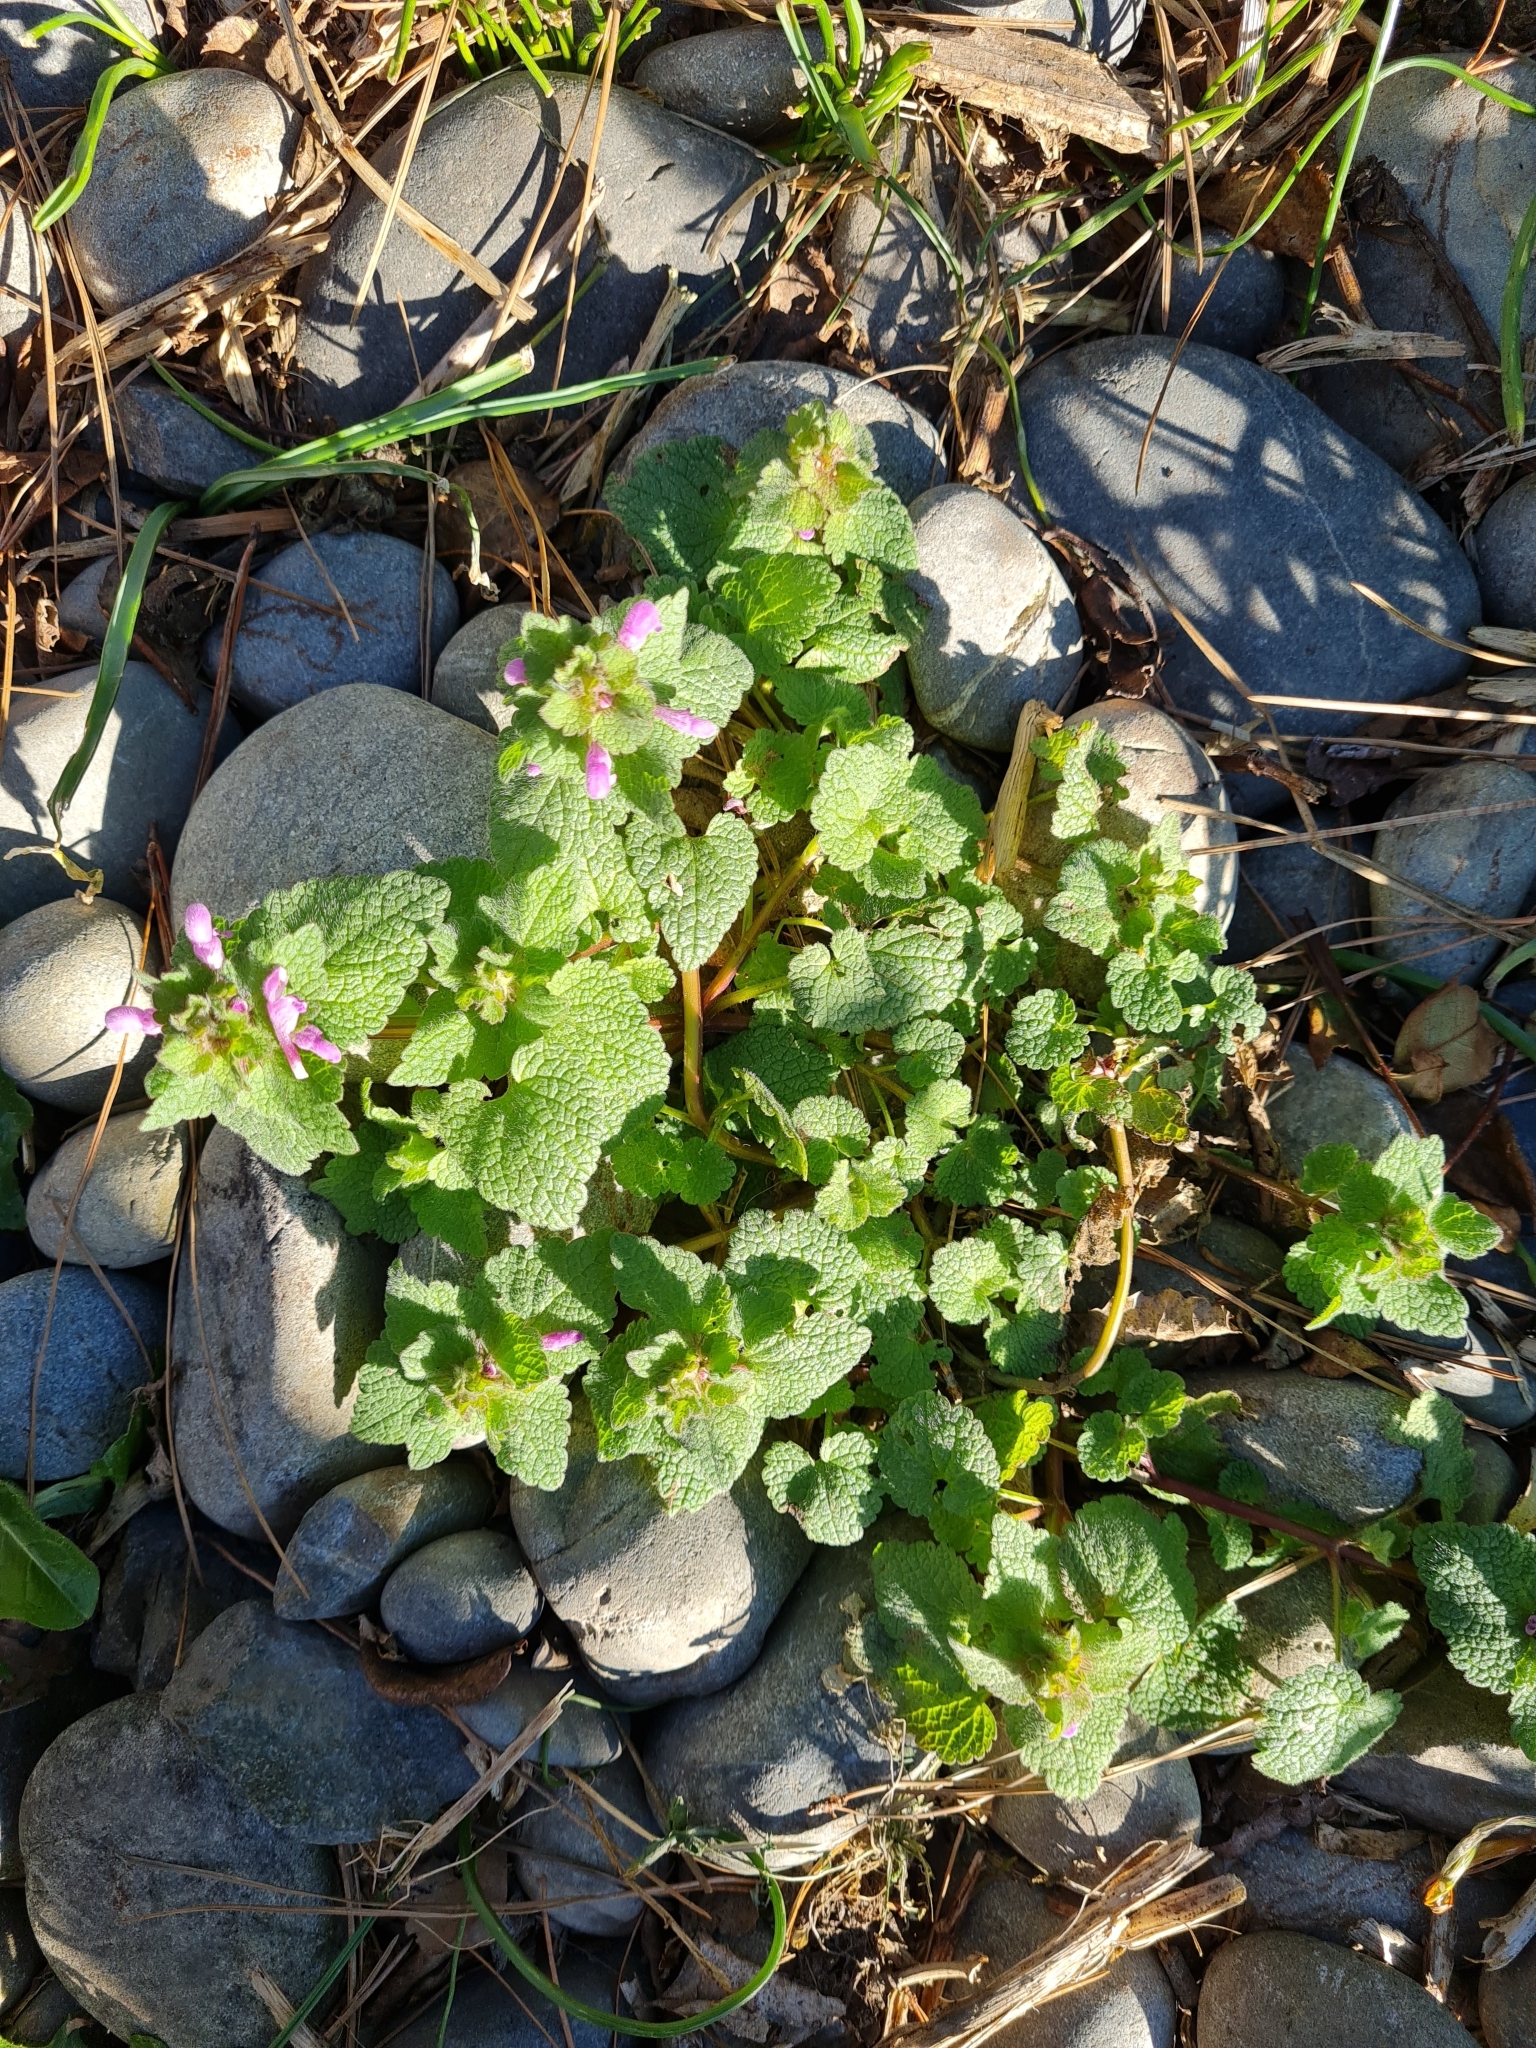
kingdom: Plantae
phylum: Tracheophyta
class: Magnoliopsida
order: Lamiales
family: Lamiaceae
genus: Lamium
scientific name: Lamium purpureum
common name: Red dead-nettle
